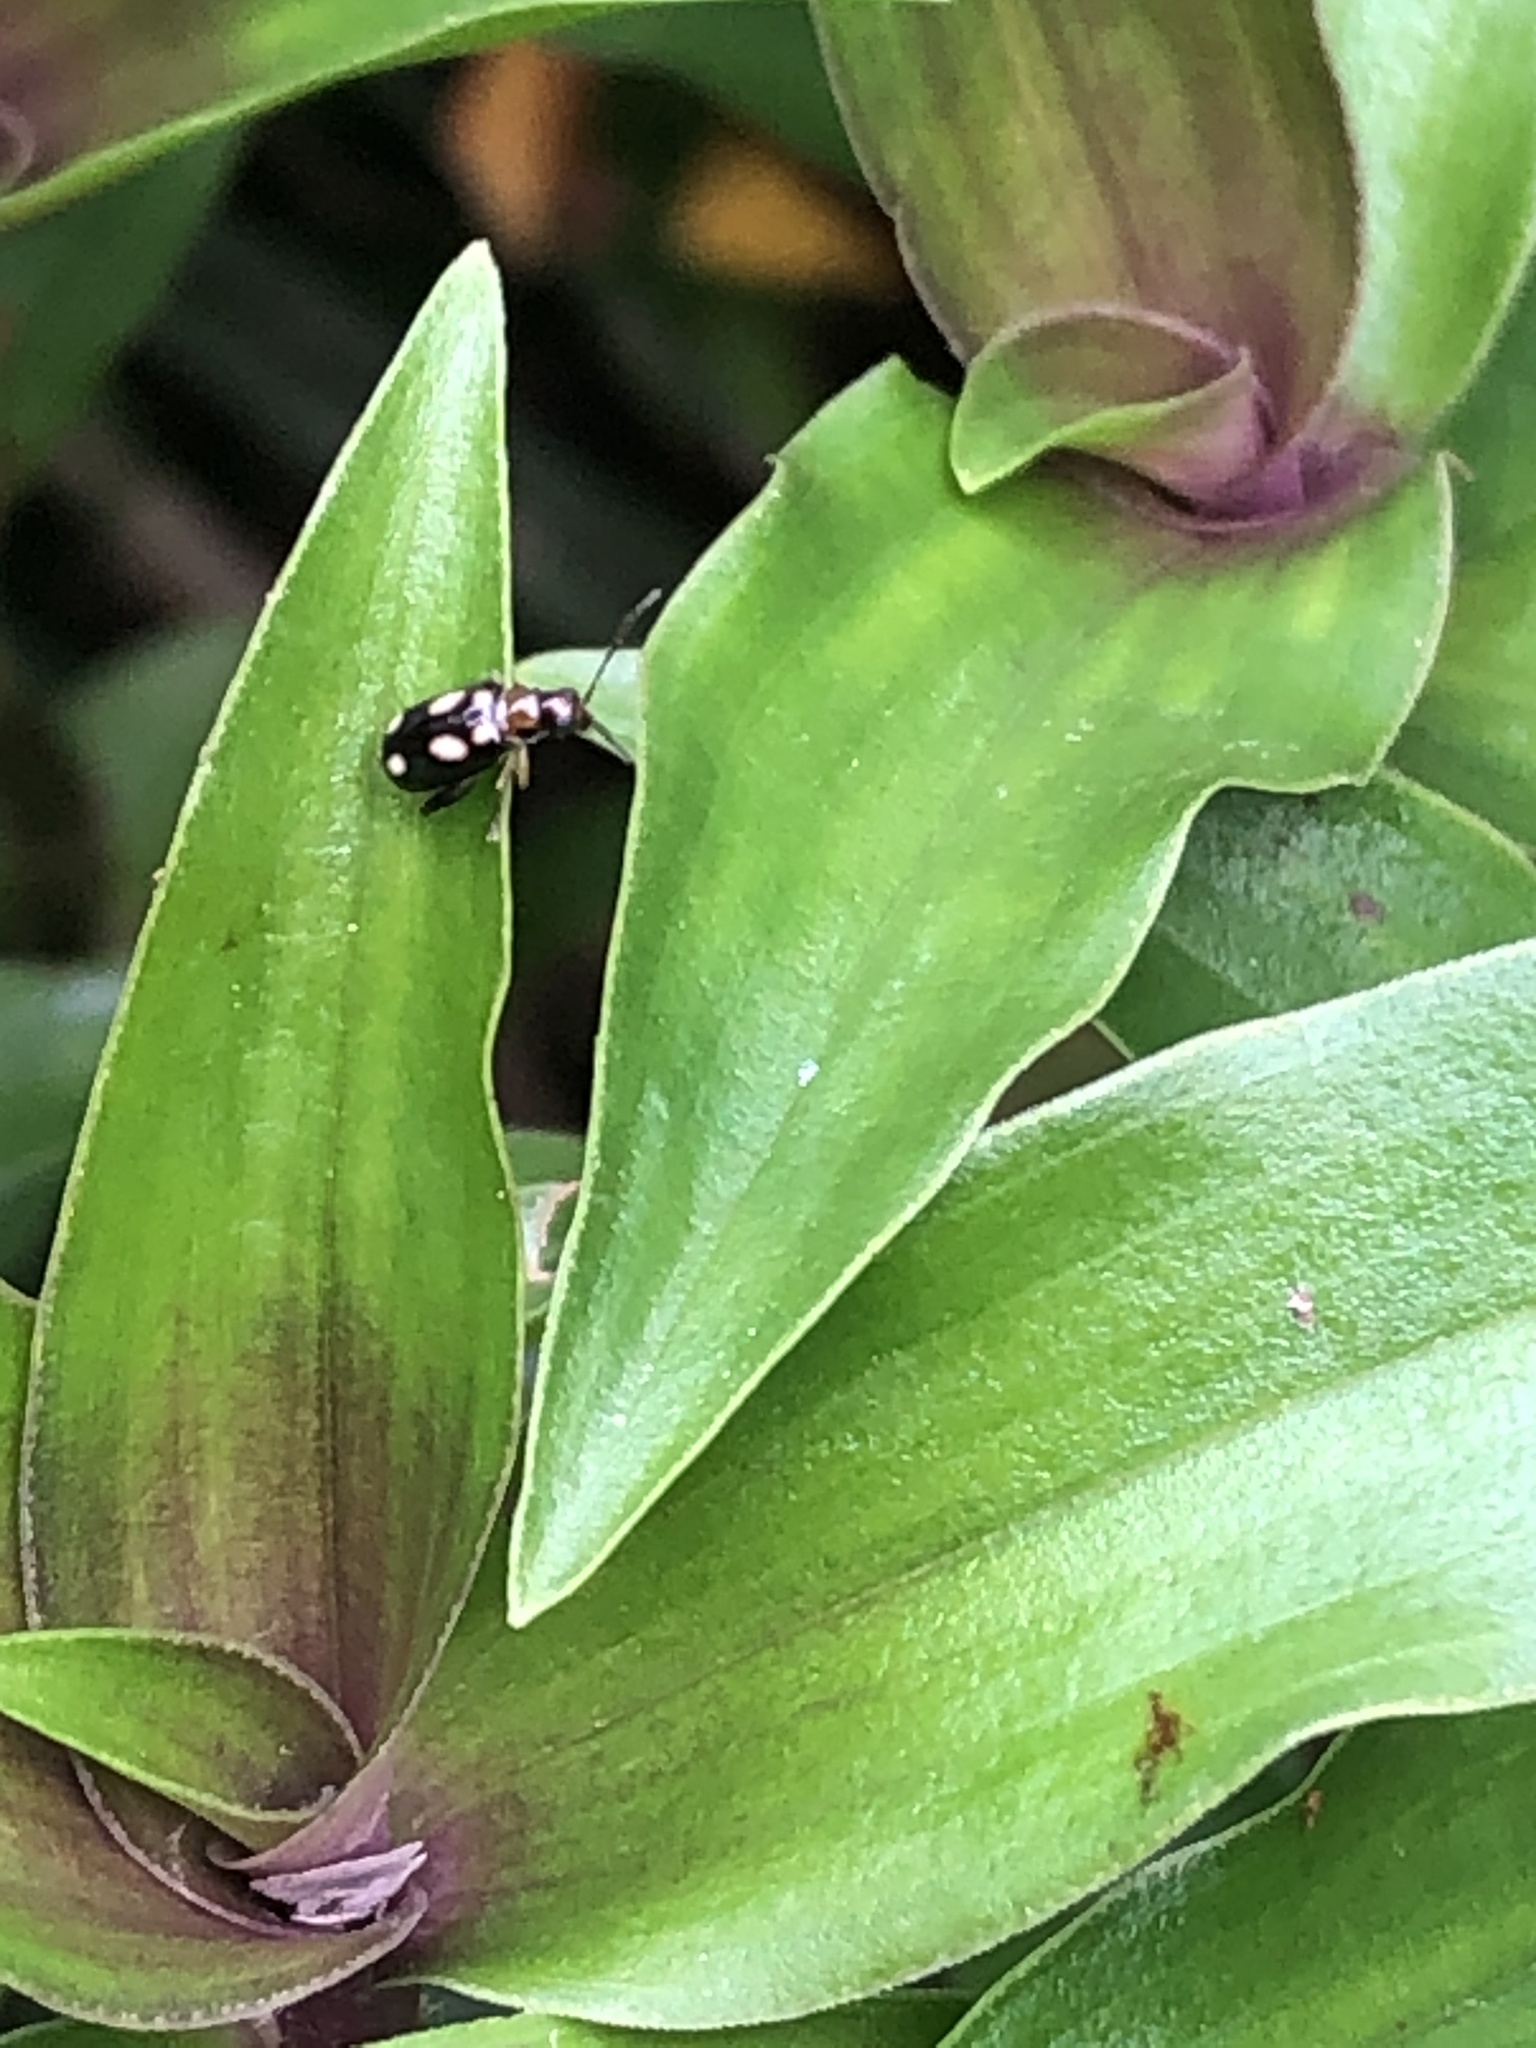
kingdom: Animalia
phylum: Arthropoda
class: Insecta
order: Coleoptera
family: Chrysomelidae
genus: Systena
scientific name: Systena
